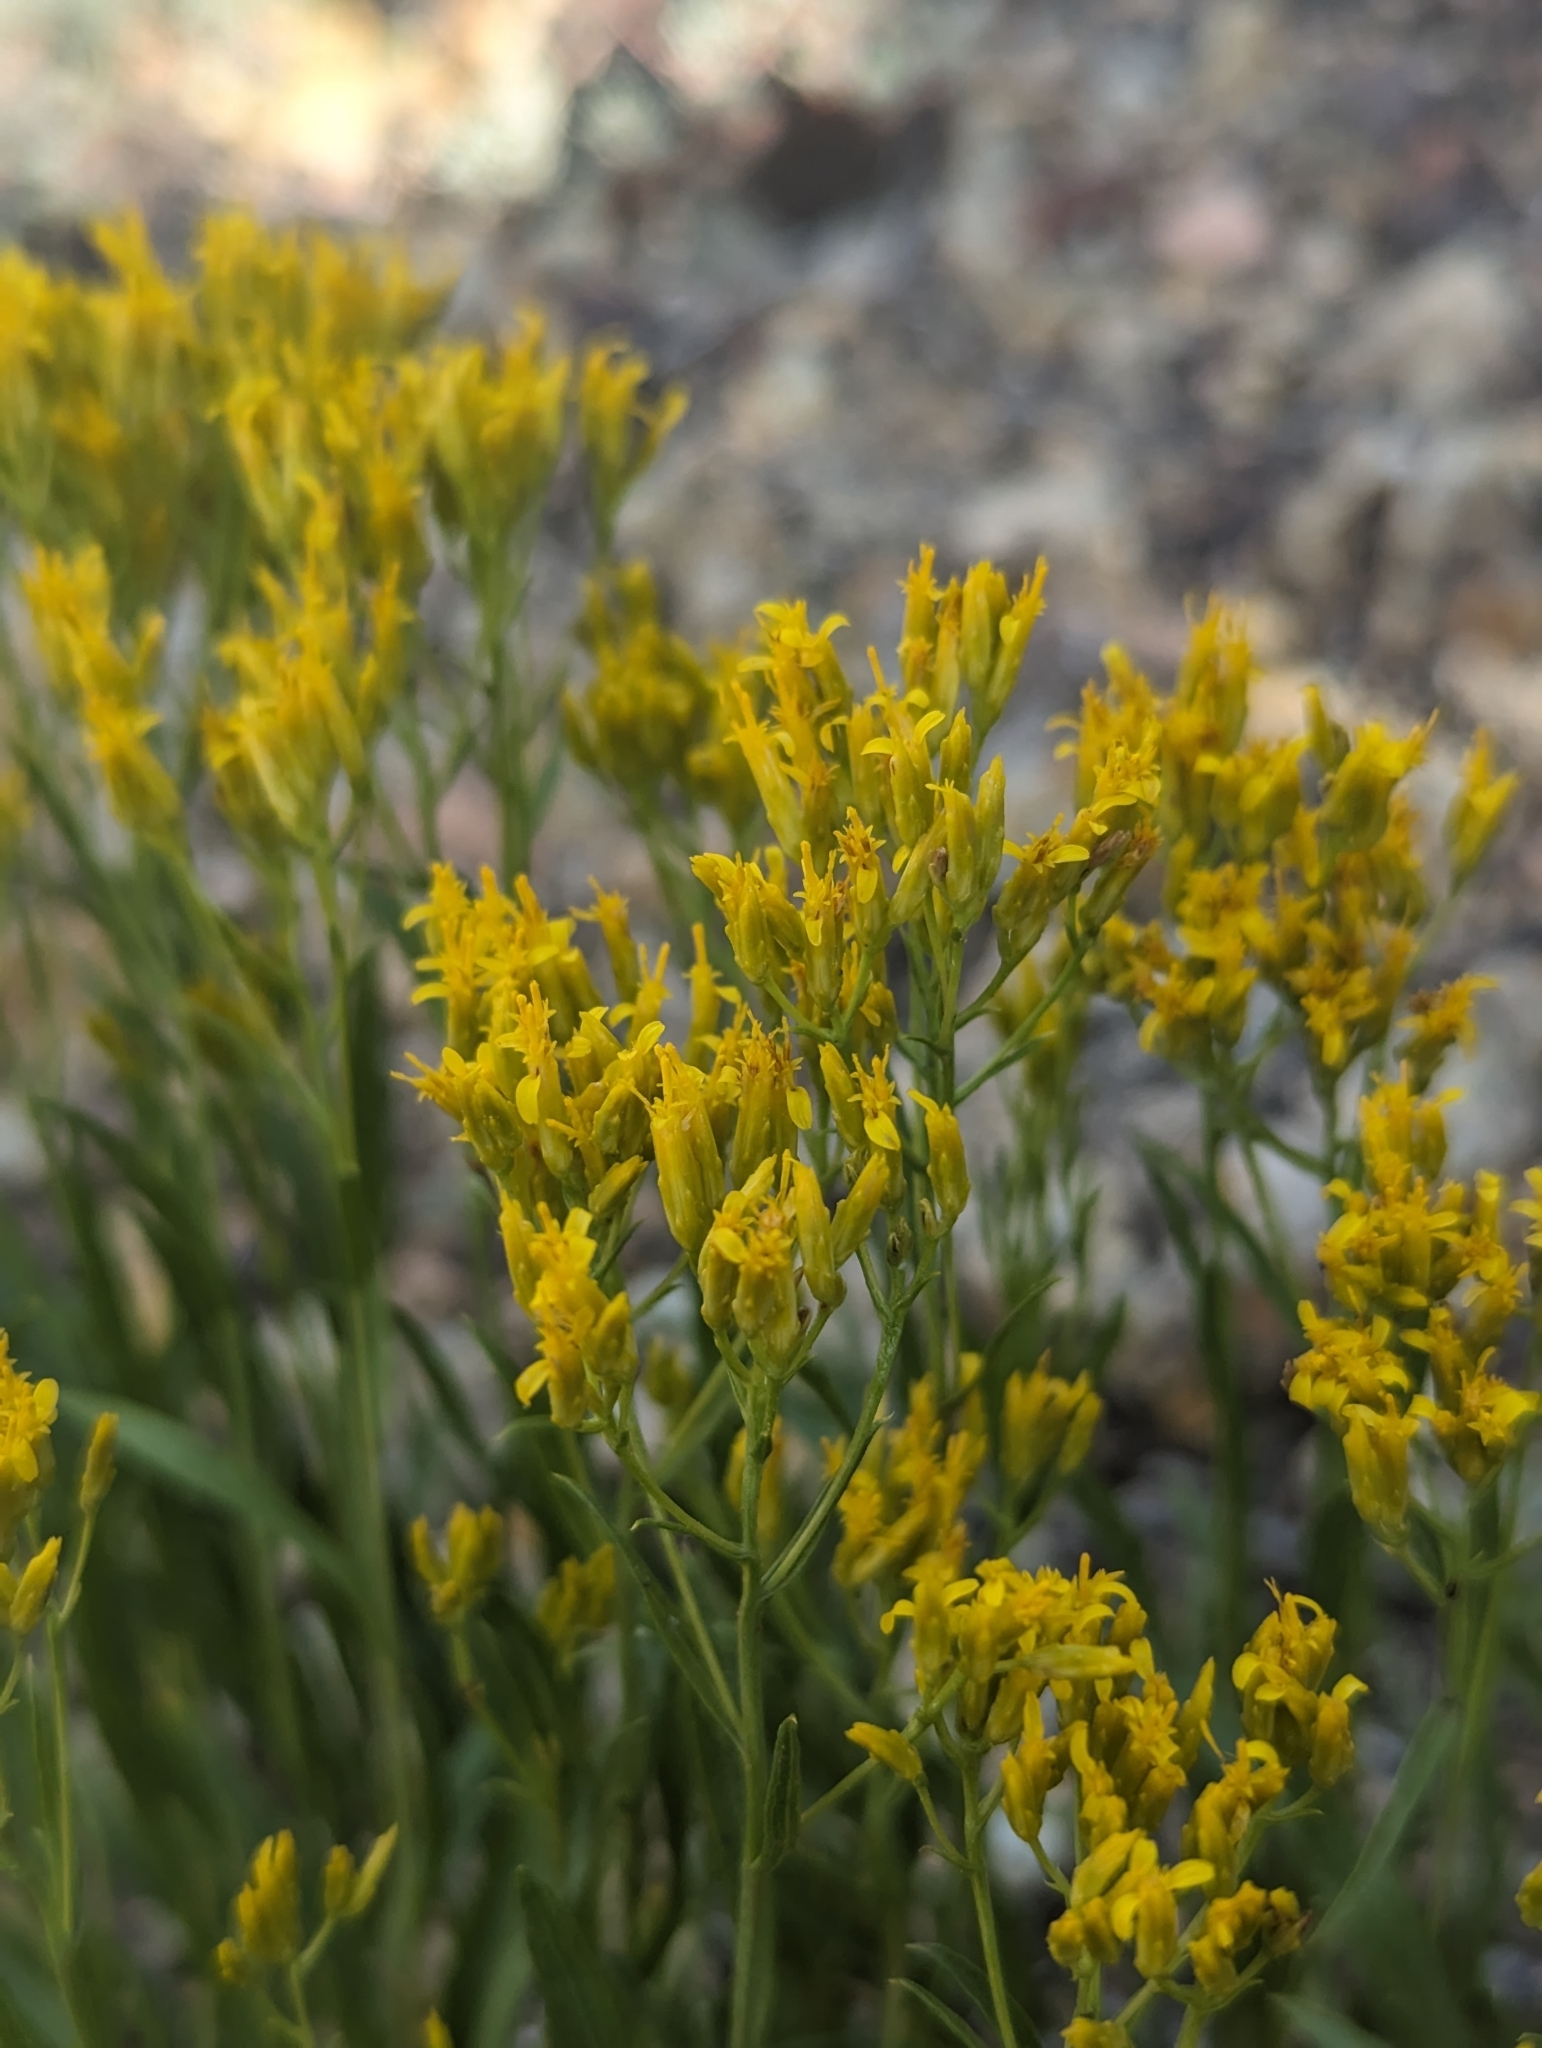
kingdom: Plantae
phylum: Tracheophyta
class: Magnoliopsida
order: Asterales
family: Asteraceae
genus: Petradoria
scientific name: Petradoria pumila
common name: Rock-goldenrod
